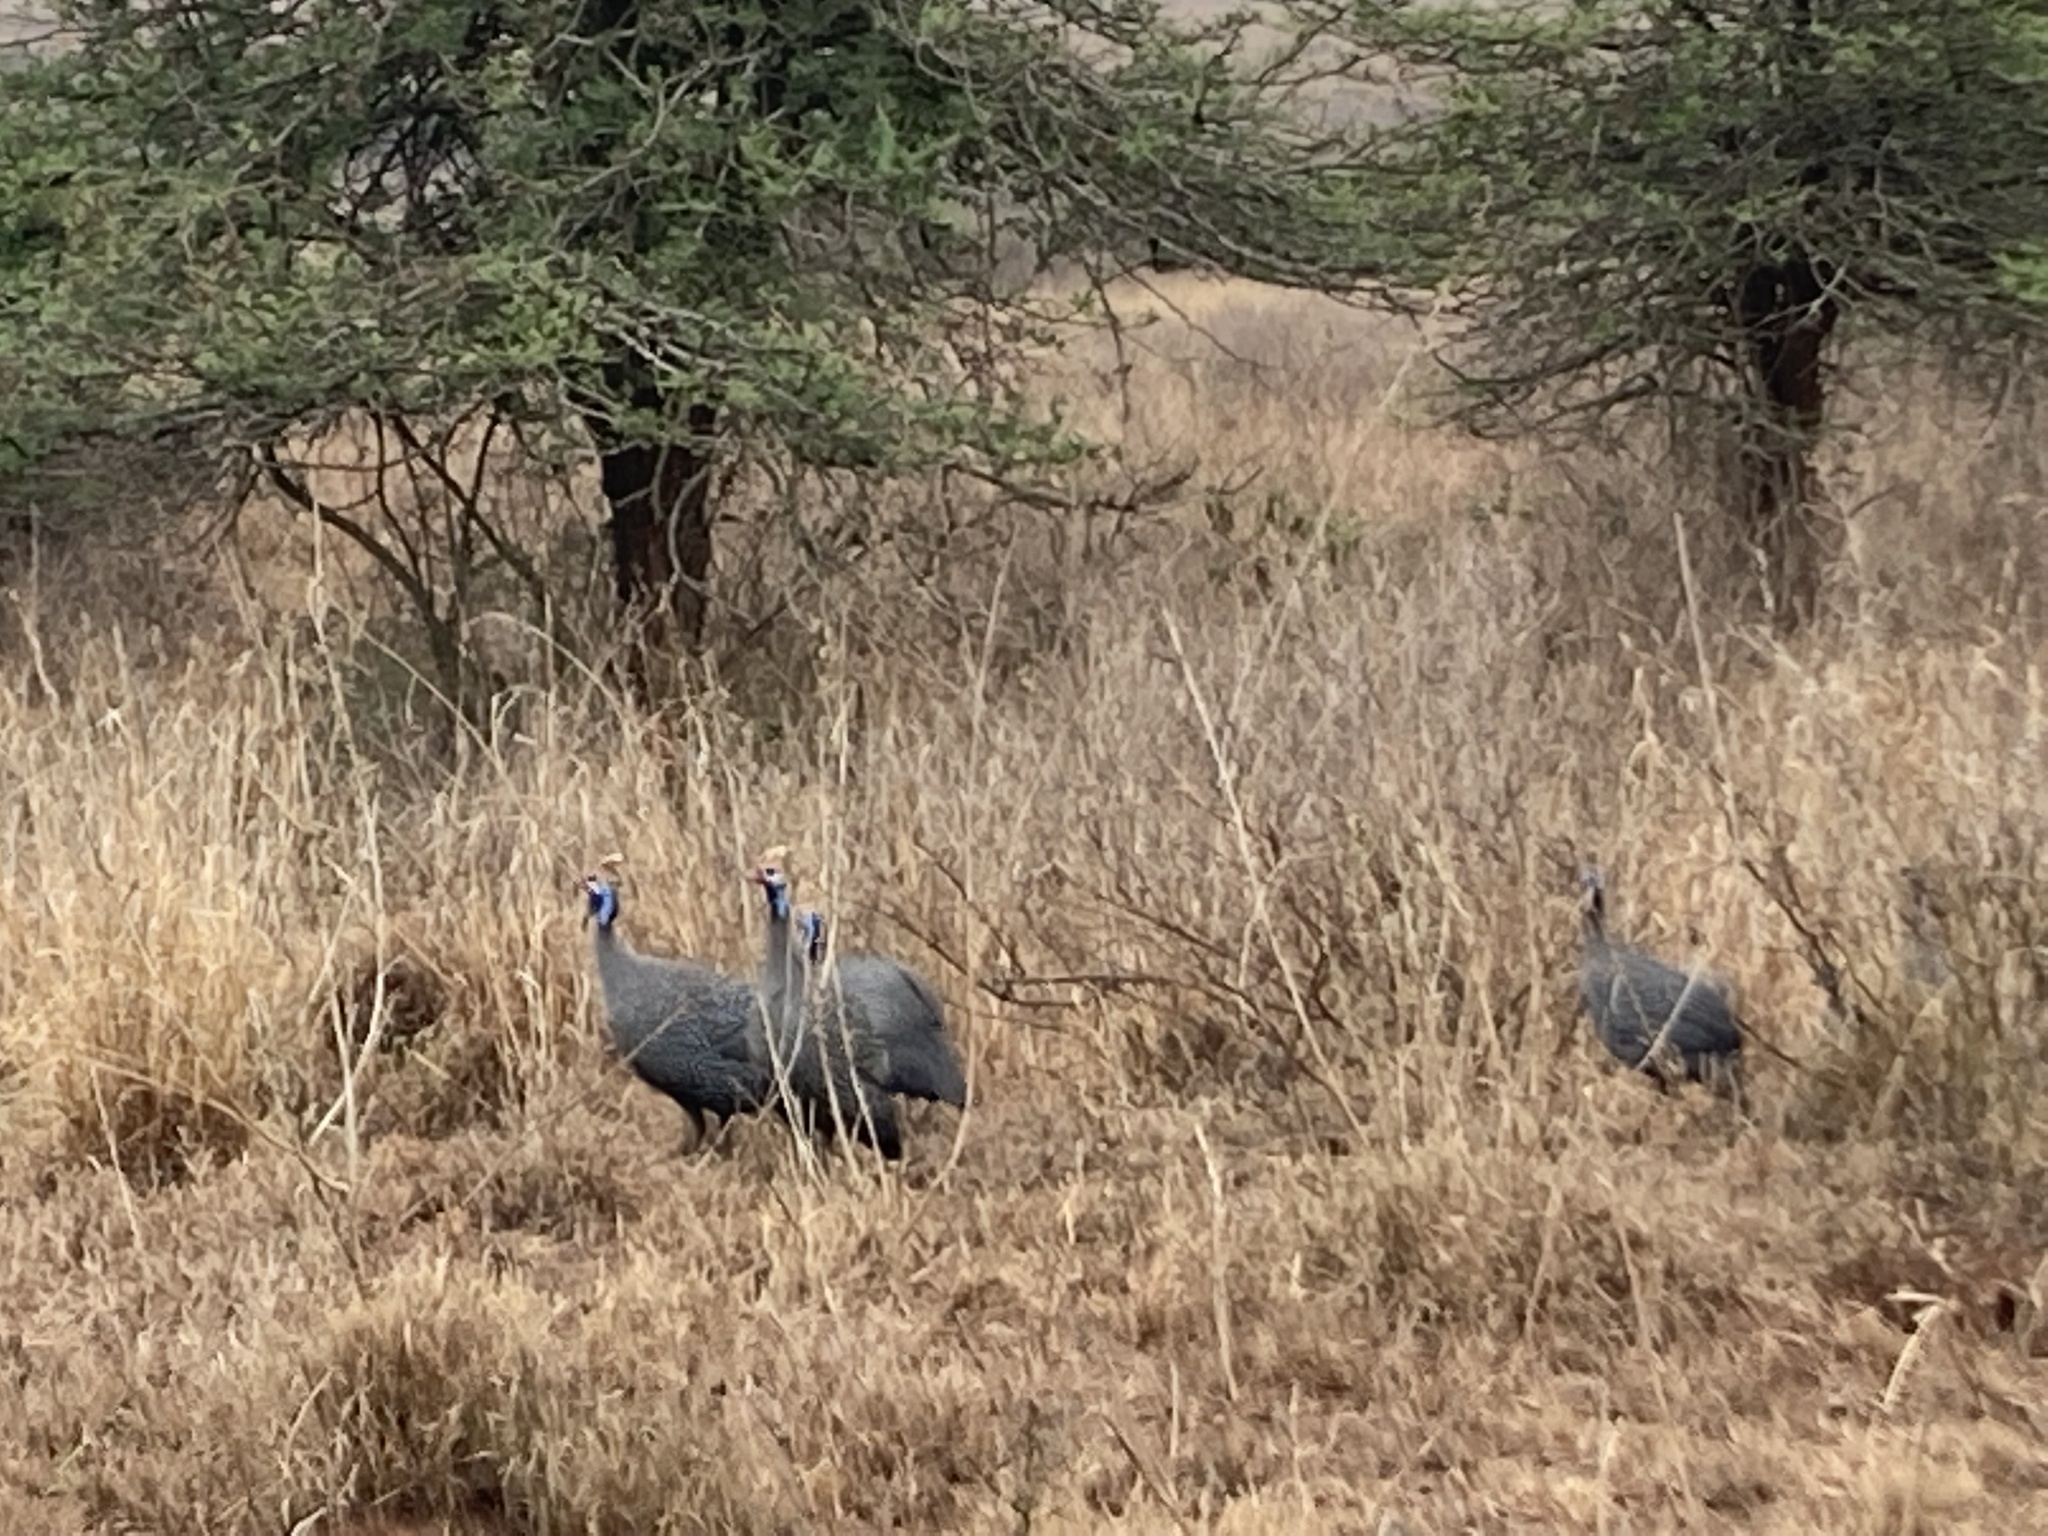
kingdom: Animalia
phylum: Chordata
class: Aves
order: Galliformes
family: Numididae
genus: Numida
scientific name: Numida meleagris
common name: Helmeted guineafowl
